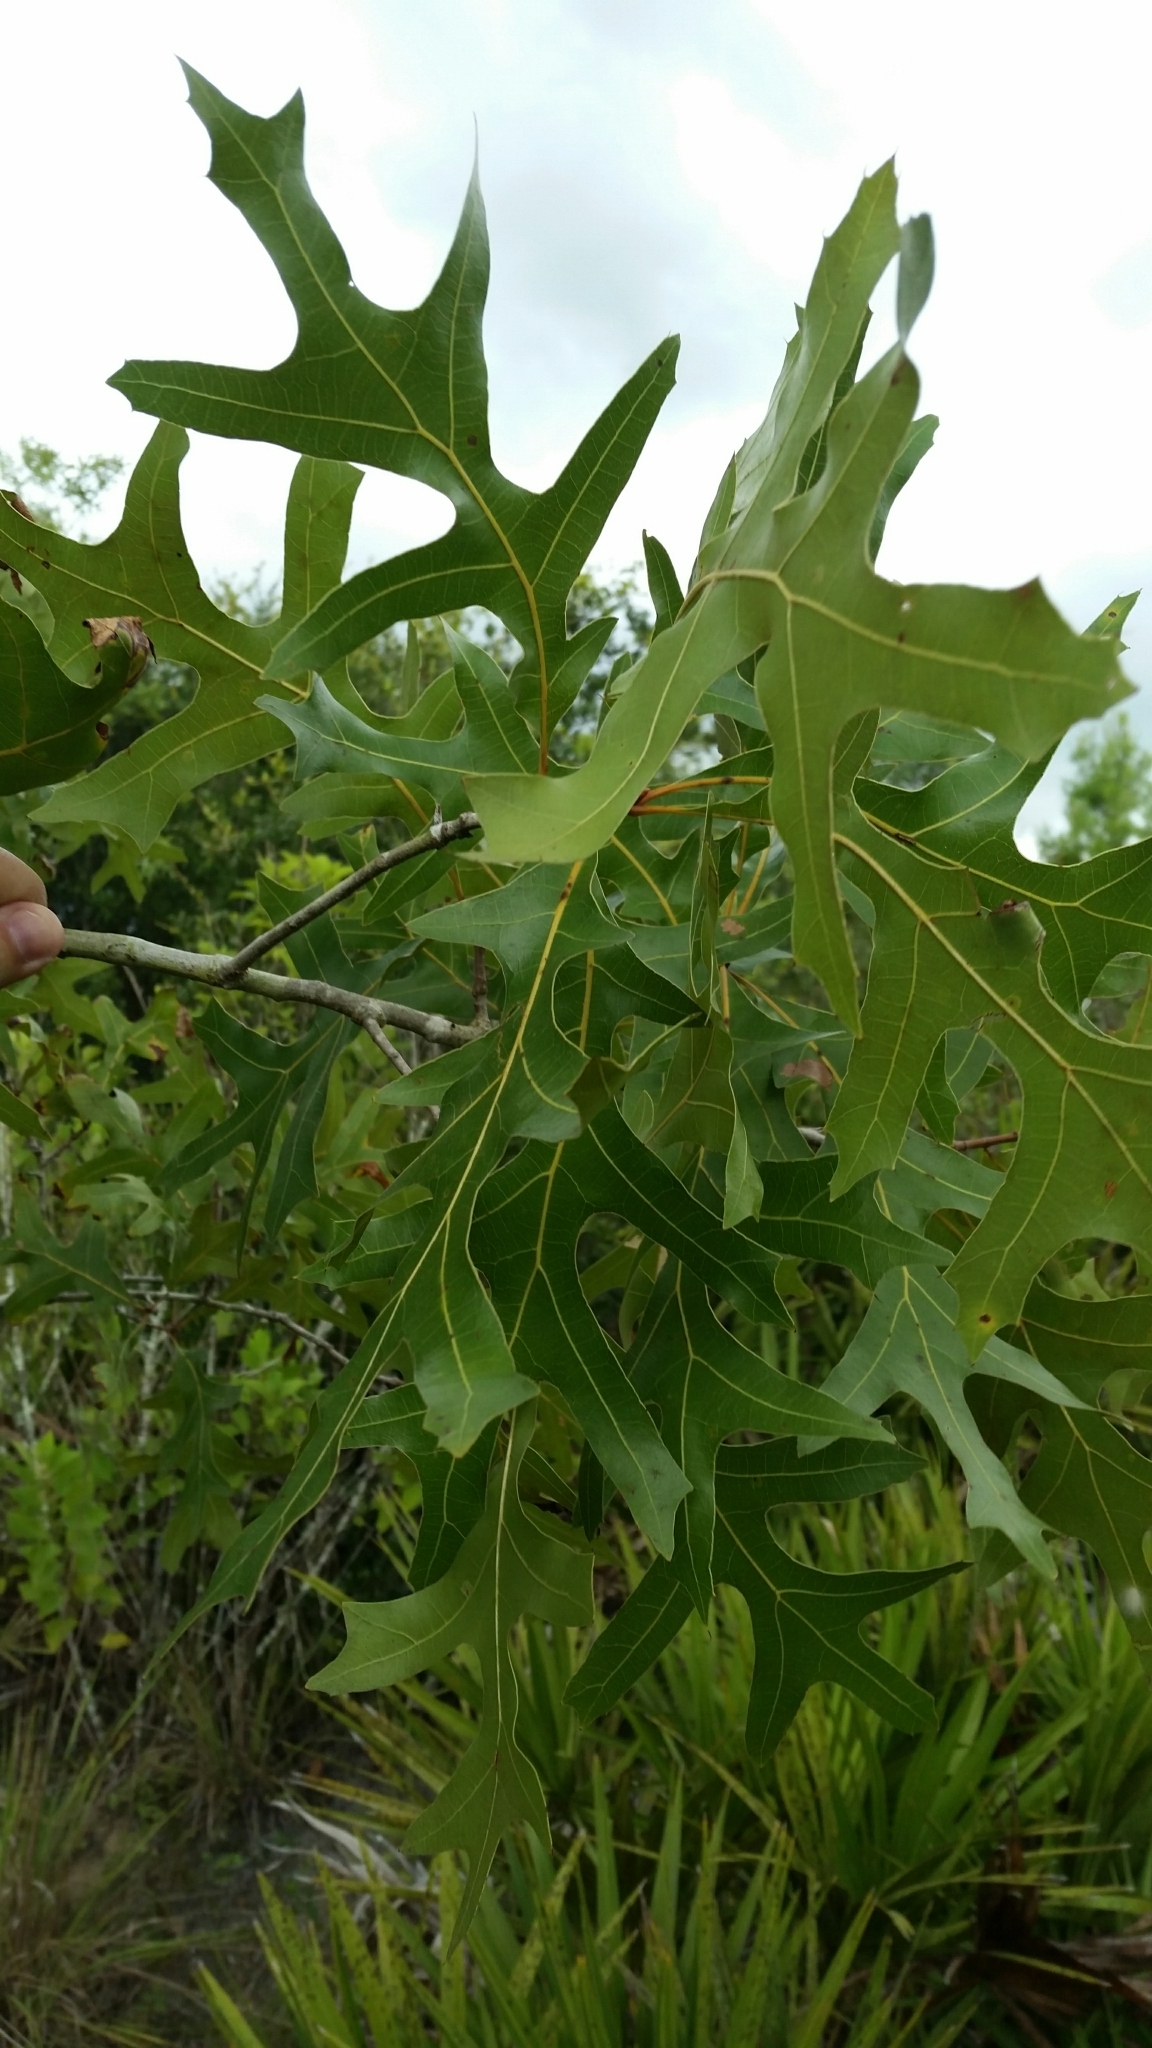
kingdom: Plantae
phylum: Tracheophyta
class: Magnoliopsida
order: Fagales
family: Fagaceae
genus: Quercus
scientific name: Quercus laevis
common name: Turkey oak
